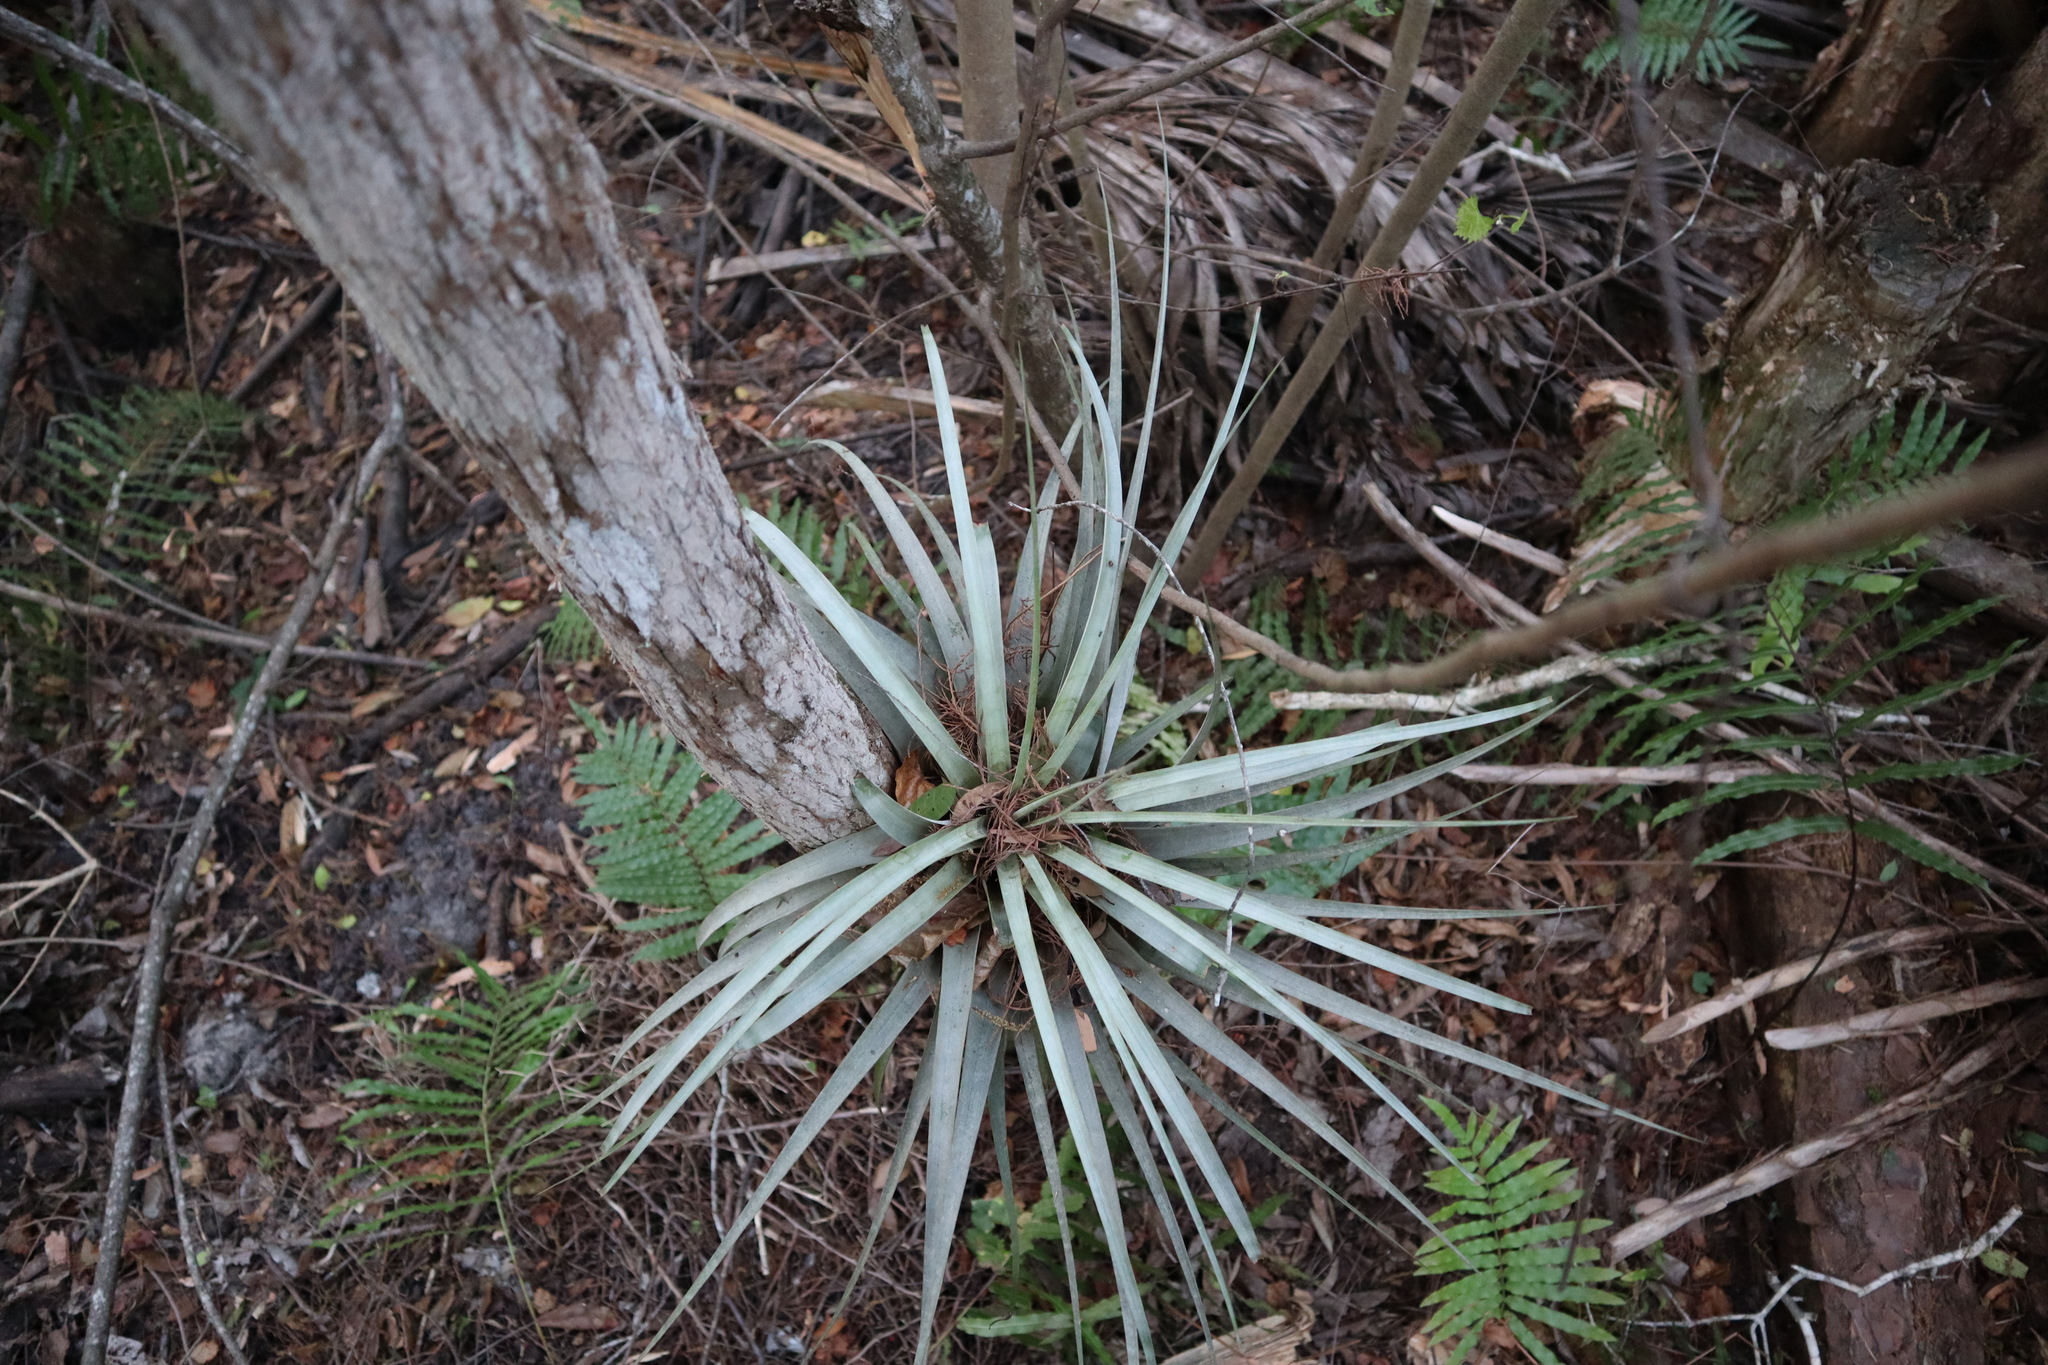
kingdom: Plantae
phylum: Tracheophyta
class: Liliopsida
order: Poales
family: Bromeliaceae
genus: Tillandsia
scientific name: Tillandsia fasciculata
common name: Giant airplant
